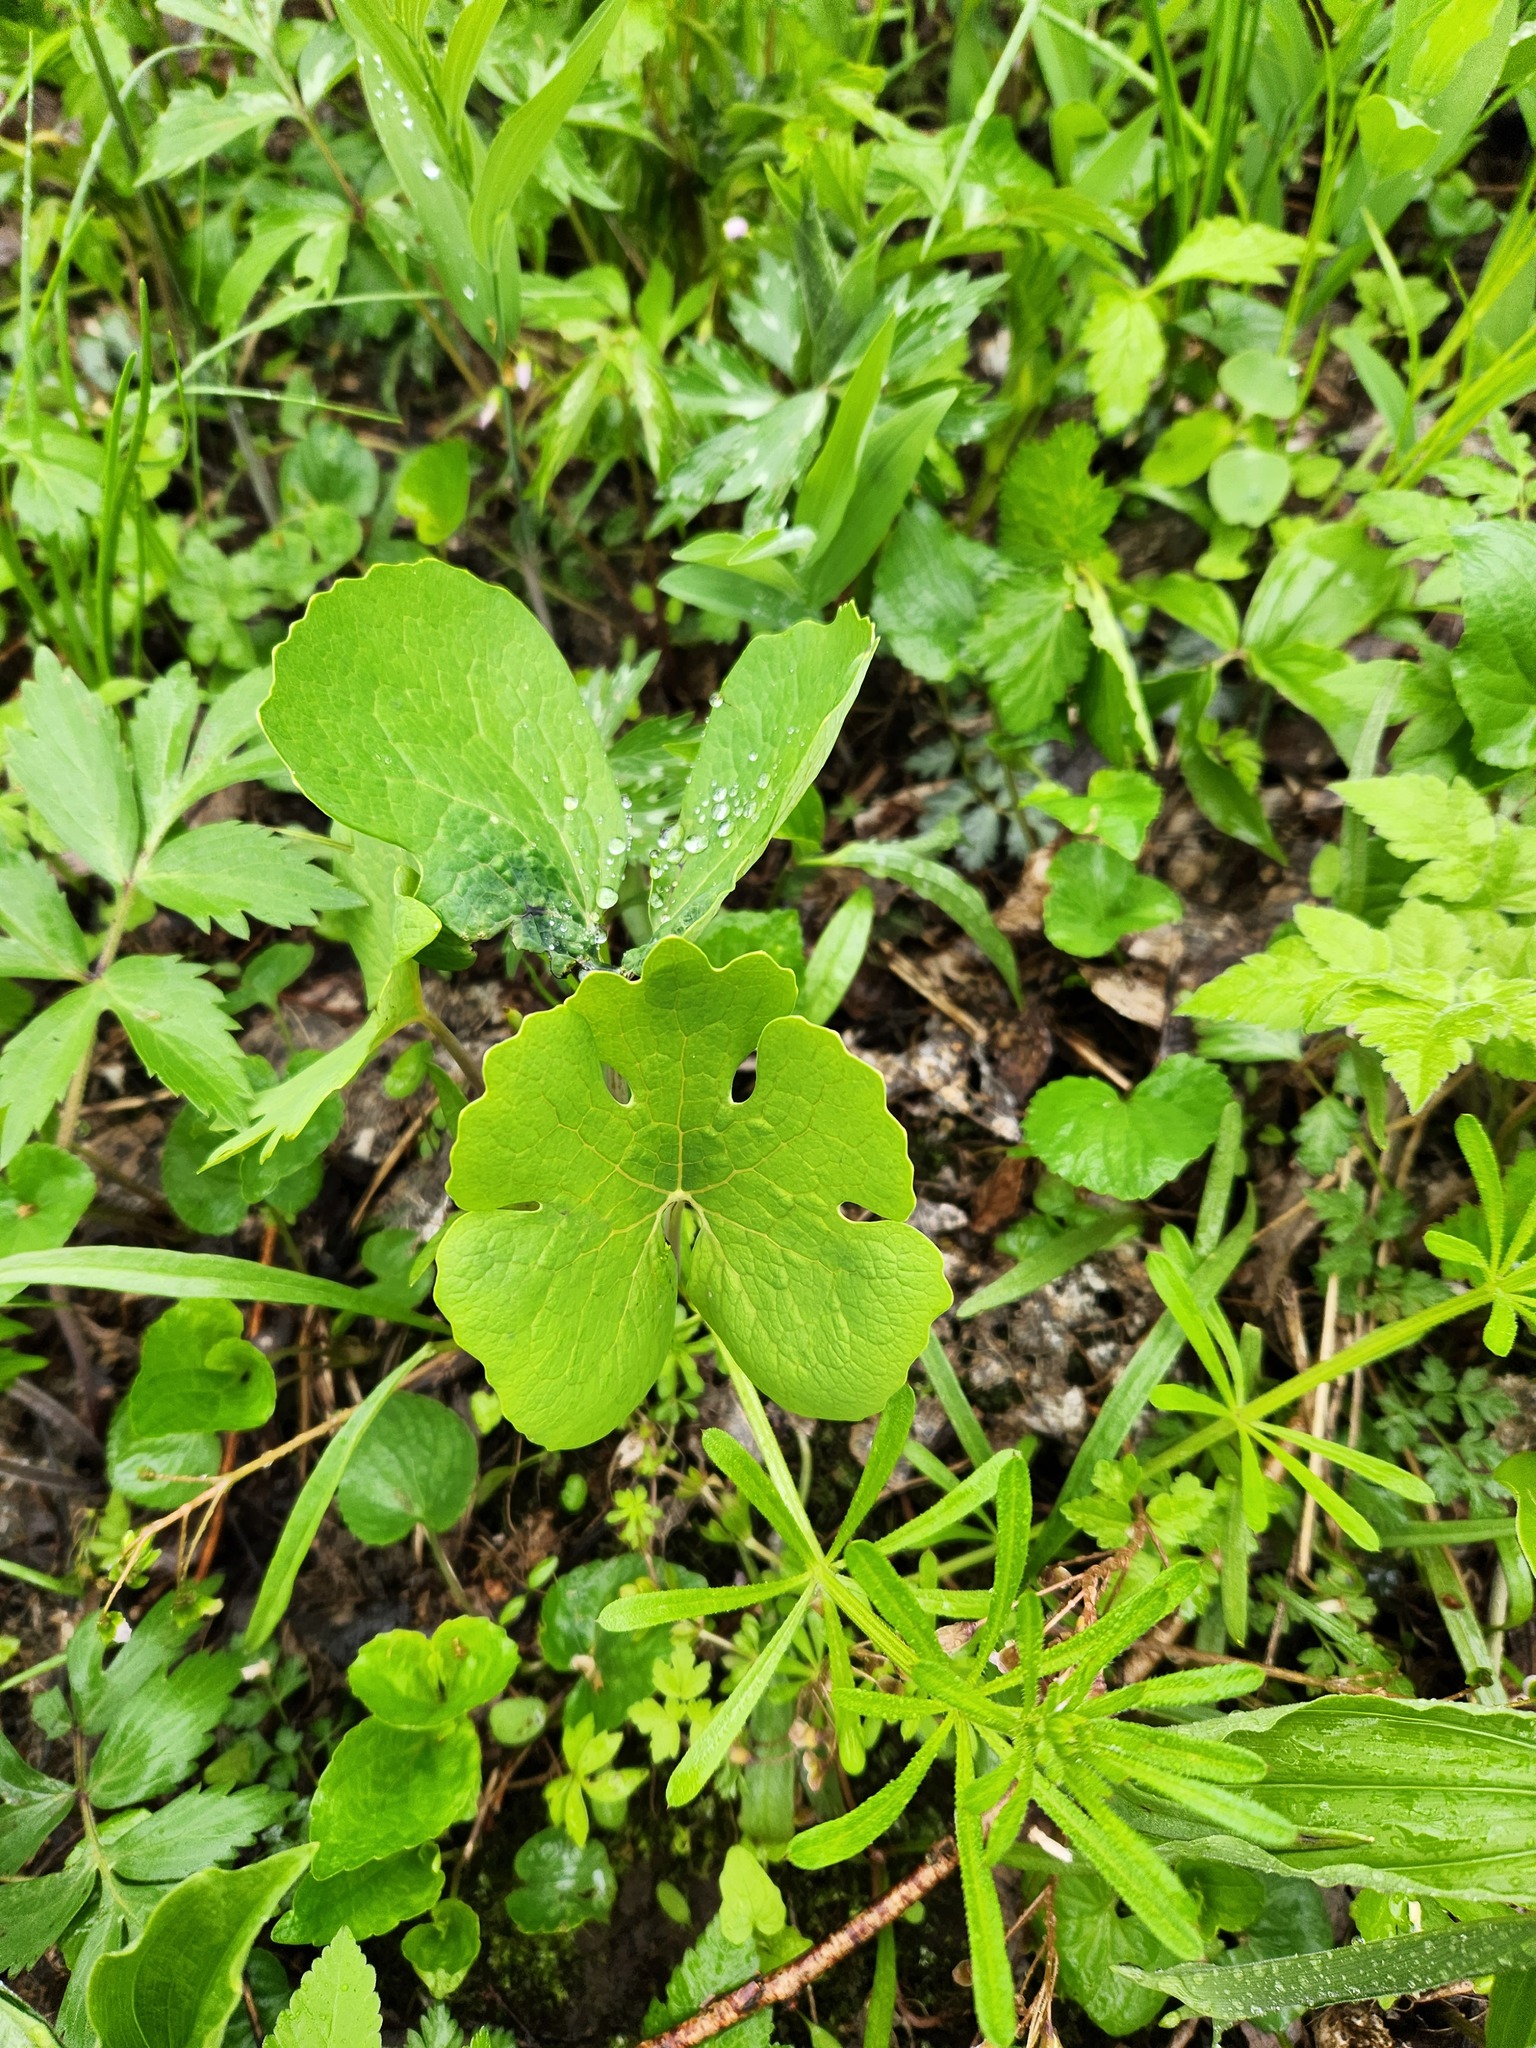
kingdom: Plantae
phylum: Tracheophyta
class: Magnoliopsida
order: Ranunculales
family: Papaveraceae
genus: Sanguinaria
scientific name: Sanguinaria canadensis
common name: Bloodroot
